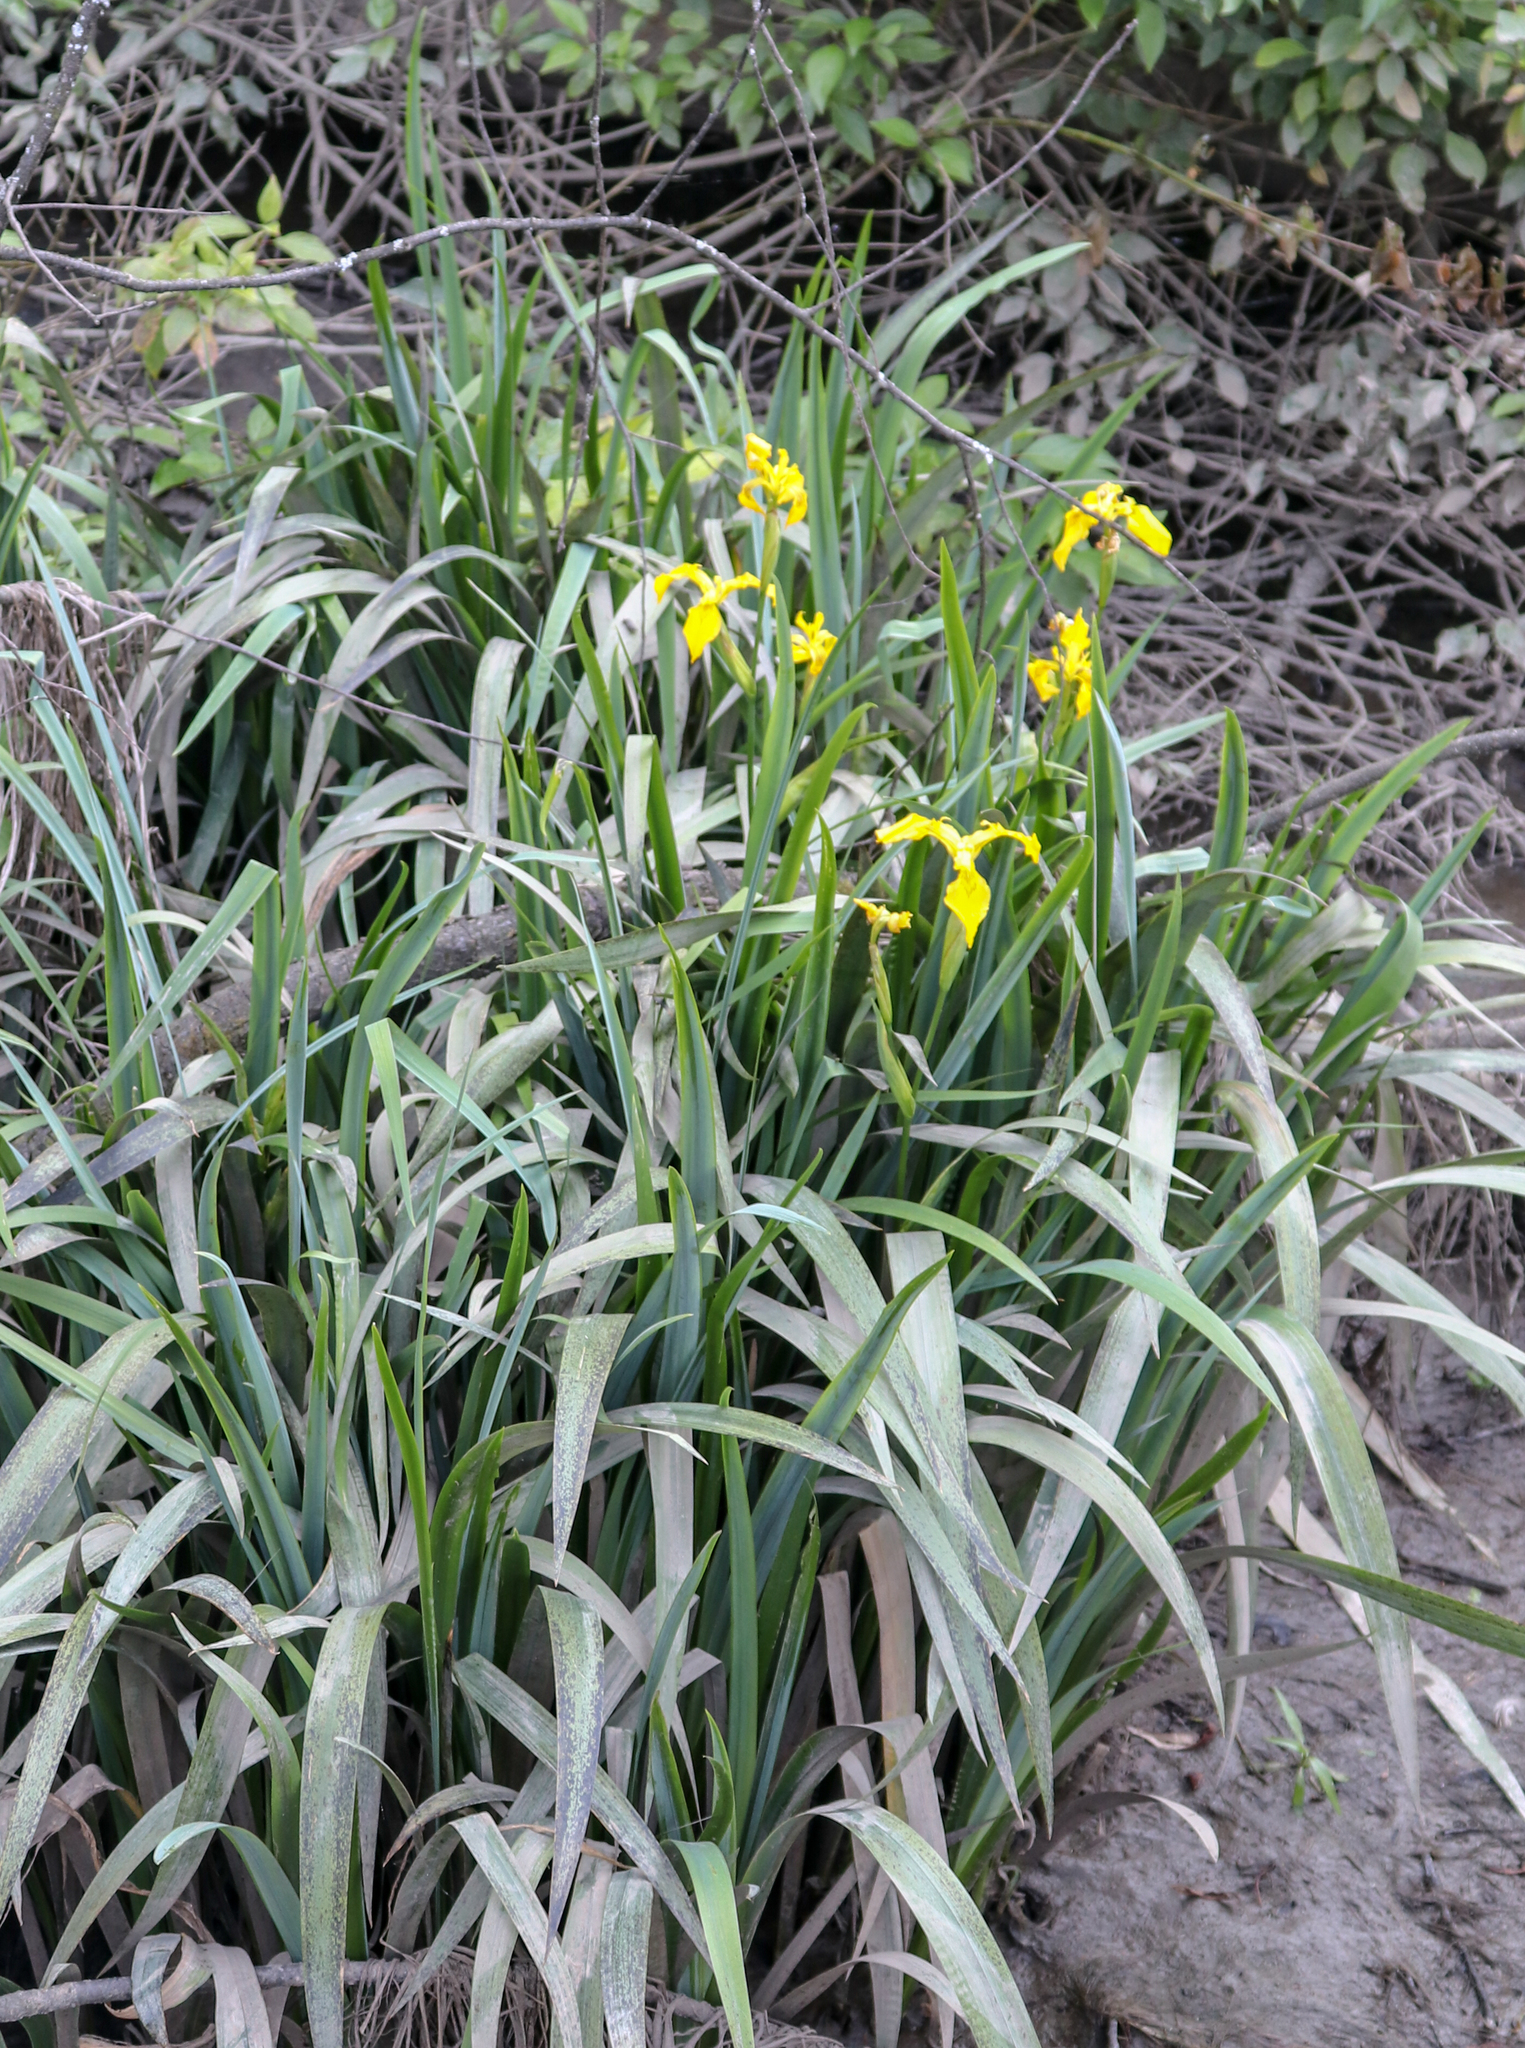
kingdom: Plantae
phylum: Tracheophyta
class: Liliopsida
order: Asparagales
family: Iridaceae
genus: Iris
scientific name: Iris pseudacorus
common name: Yellow flag
